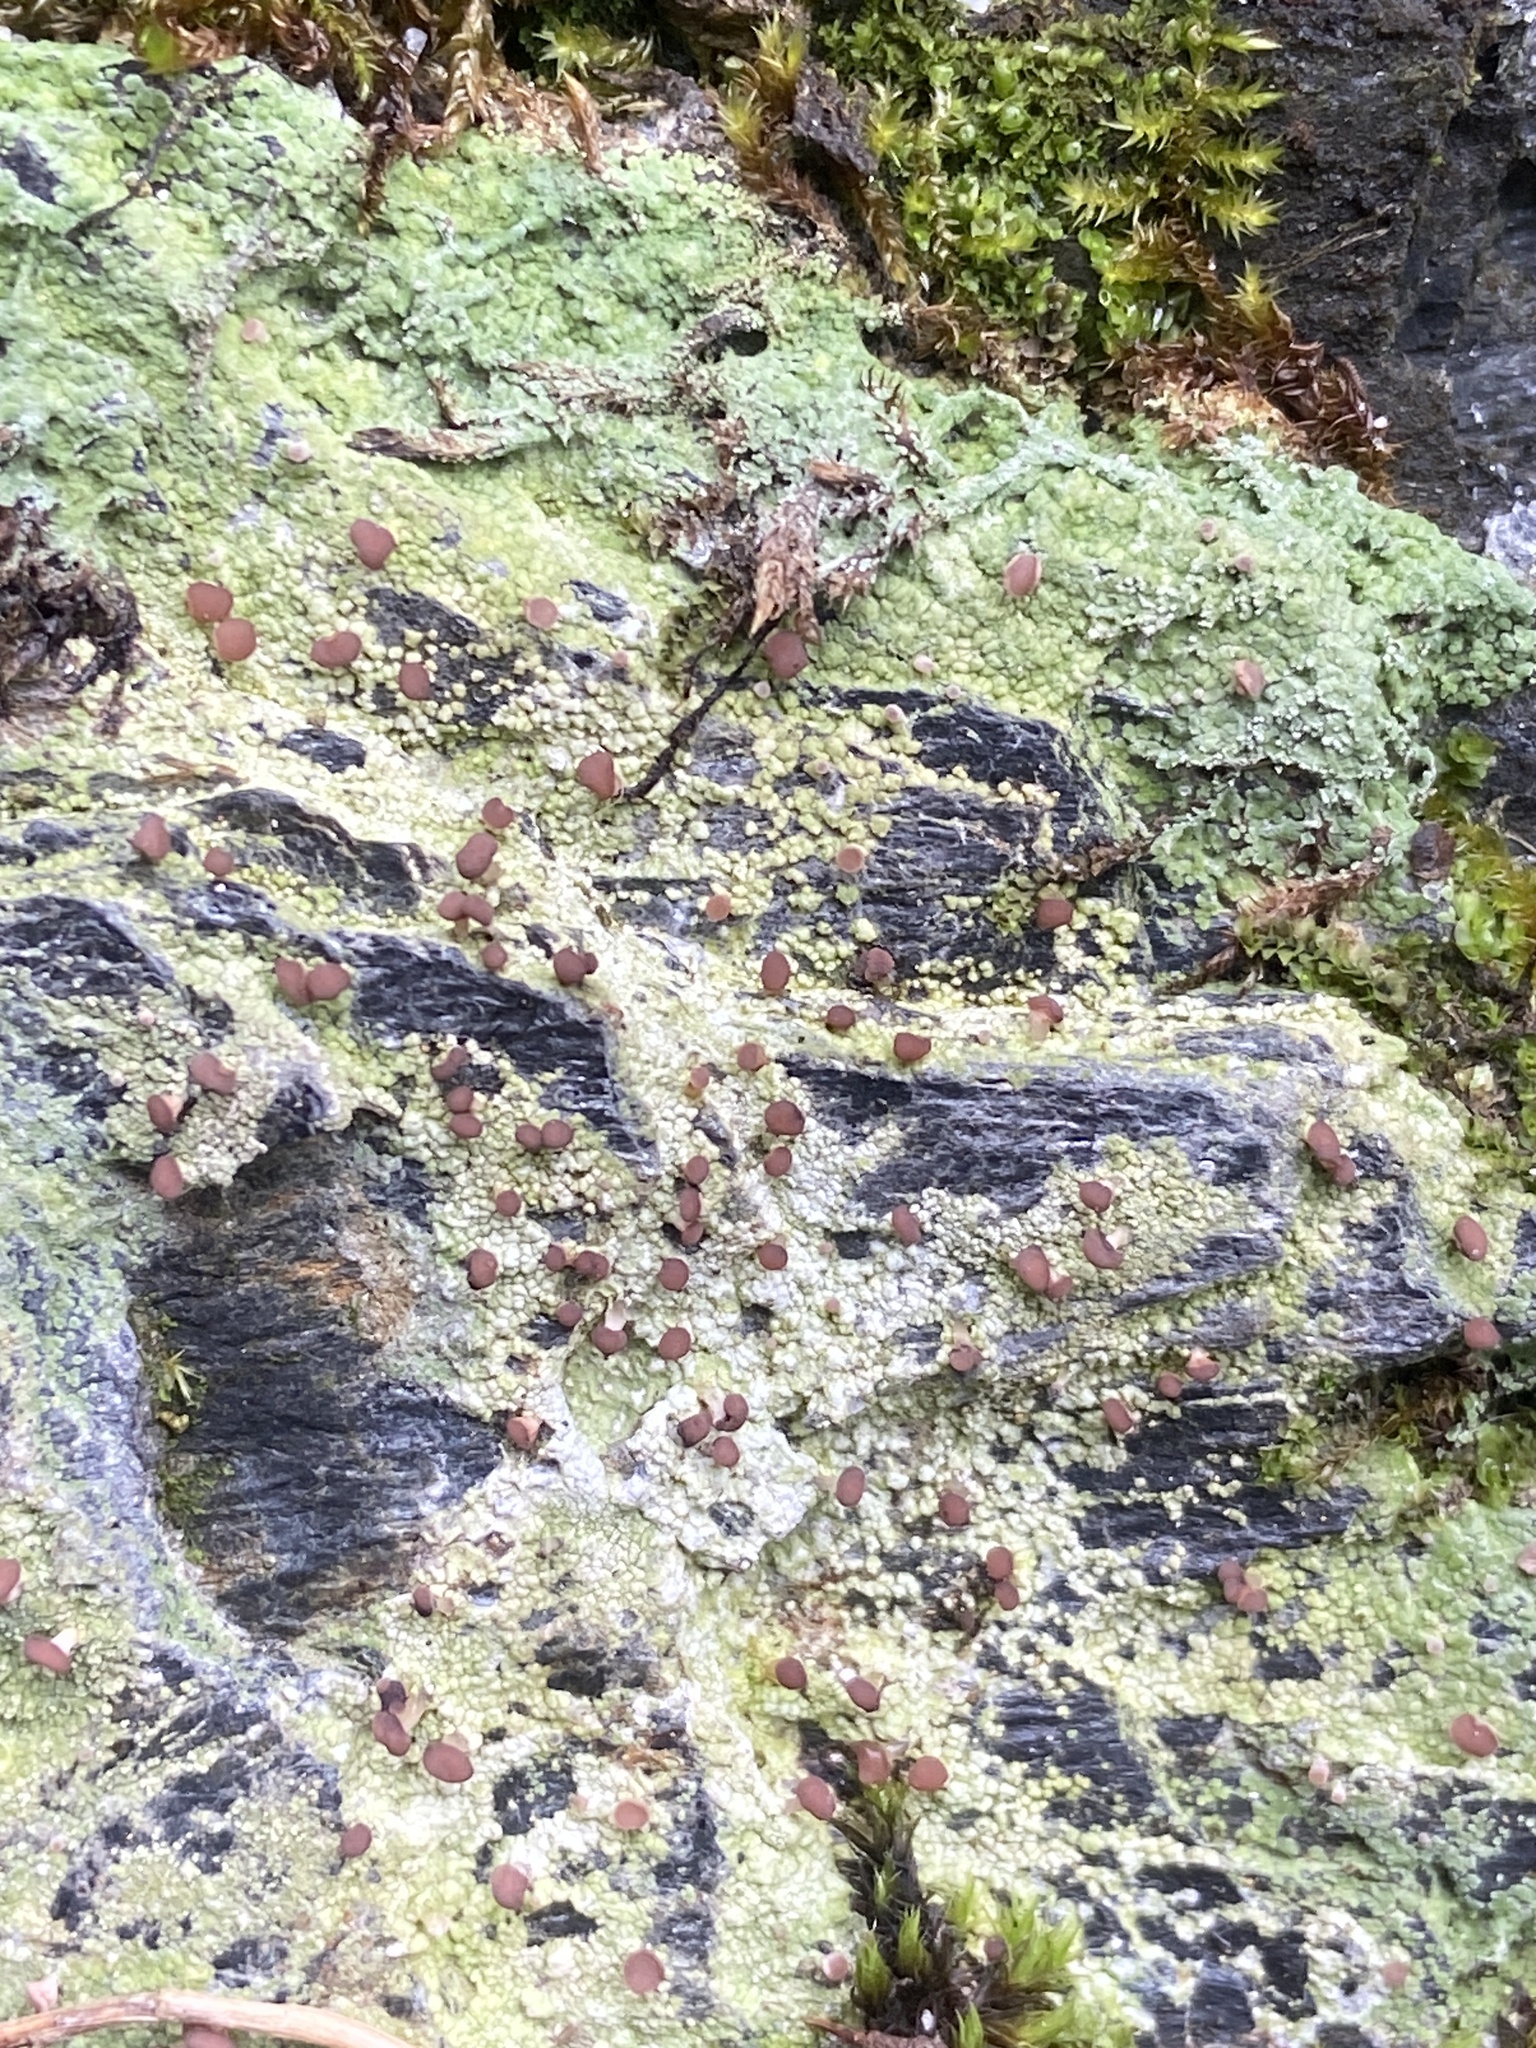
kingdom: Fungi
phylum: Ascomycota
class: Lecanoromycetes
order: Baeomycetales
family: Baeomycetaceae
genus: Baeomyces
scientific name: Baeomyces rufus
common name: Brown beret lichen
